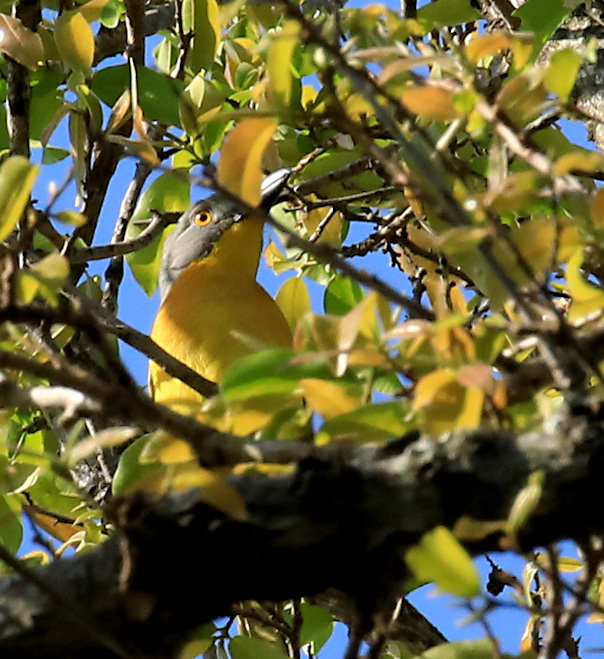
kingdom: Animalia
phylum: Chordata
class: Aves
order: Passeriformes
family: Malaconotidae
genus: Malaconotus
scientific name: Malaconotus blanchoti
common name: Grey-headed bushshrike
